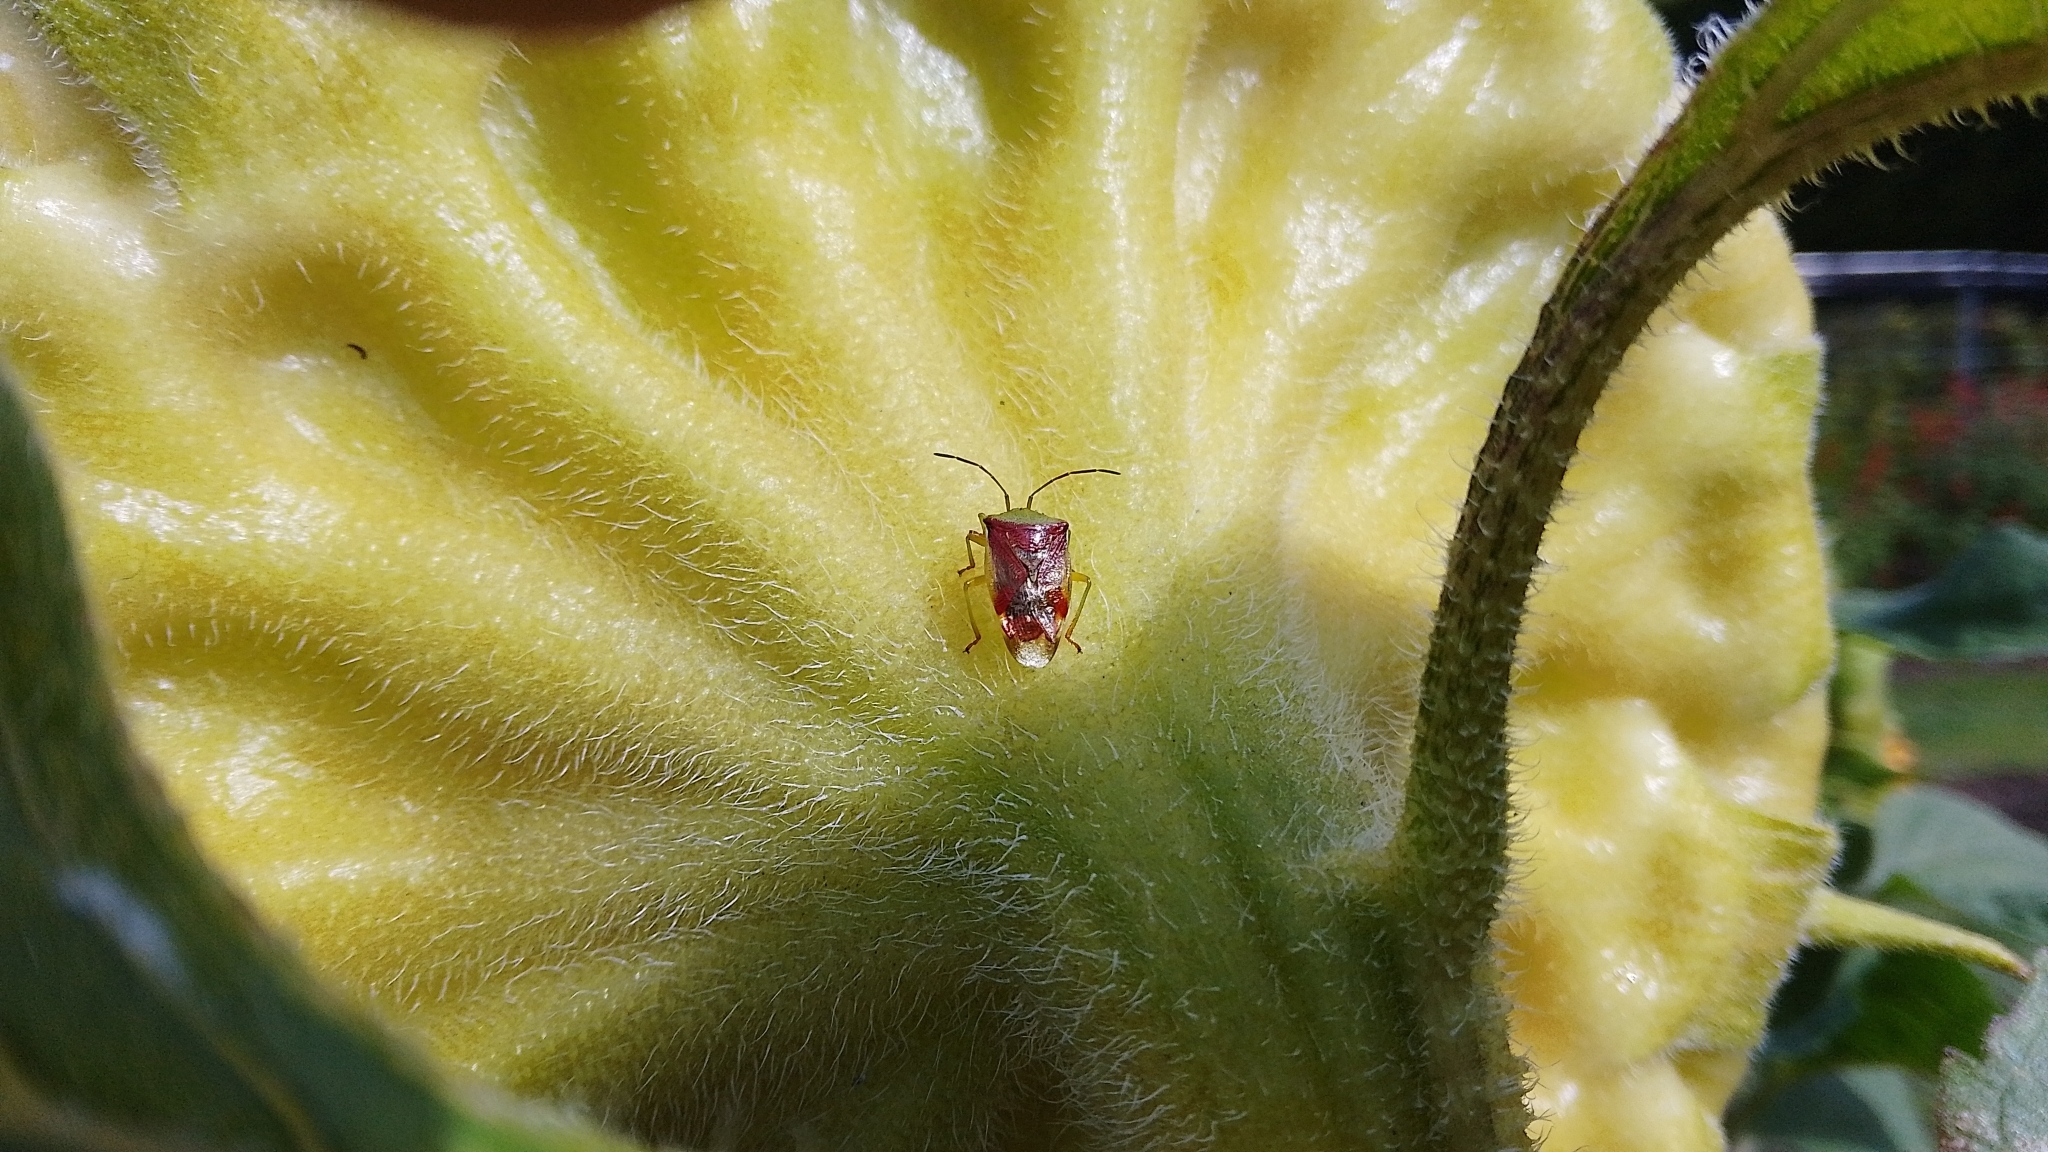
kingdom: Animalia
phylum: Arthropoda
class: Insecta
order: Hemiptera
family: Acanthosomatidae
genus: Elasmostethus
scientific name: Elasmostethus interstinctus
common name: Birch shieldbug
